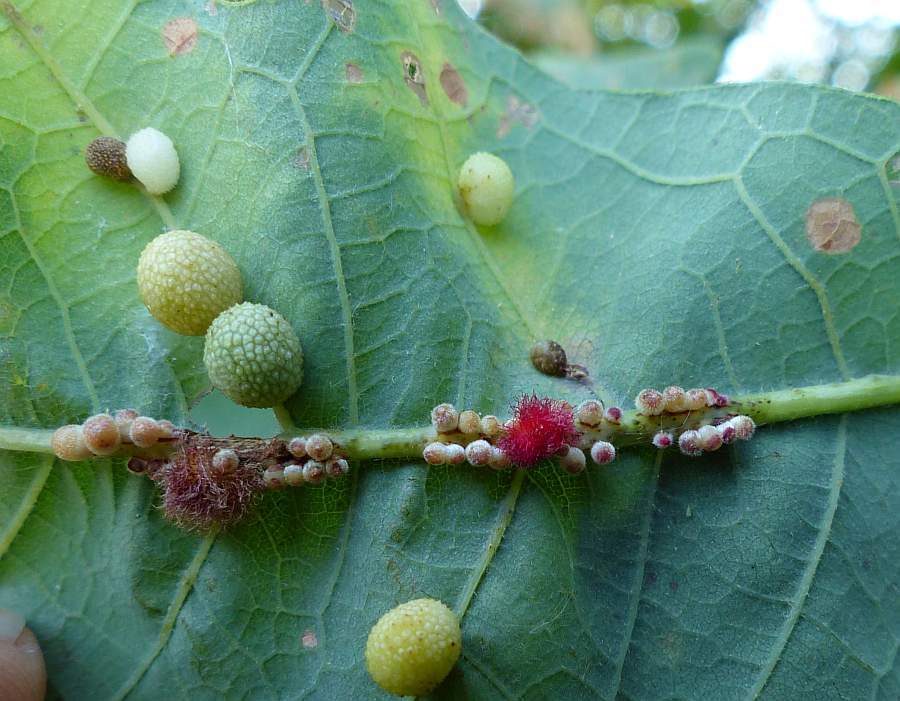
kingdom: Animalia
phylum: Arthropoda
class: Insecta
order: Hymenoptera
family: Cynipidae
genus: Andricus
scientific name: Andricus
